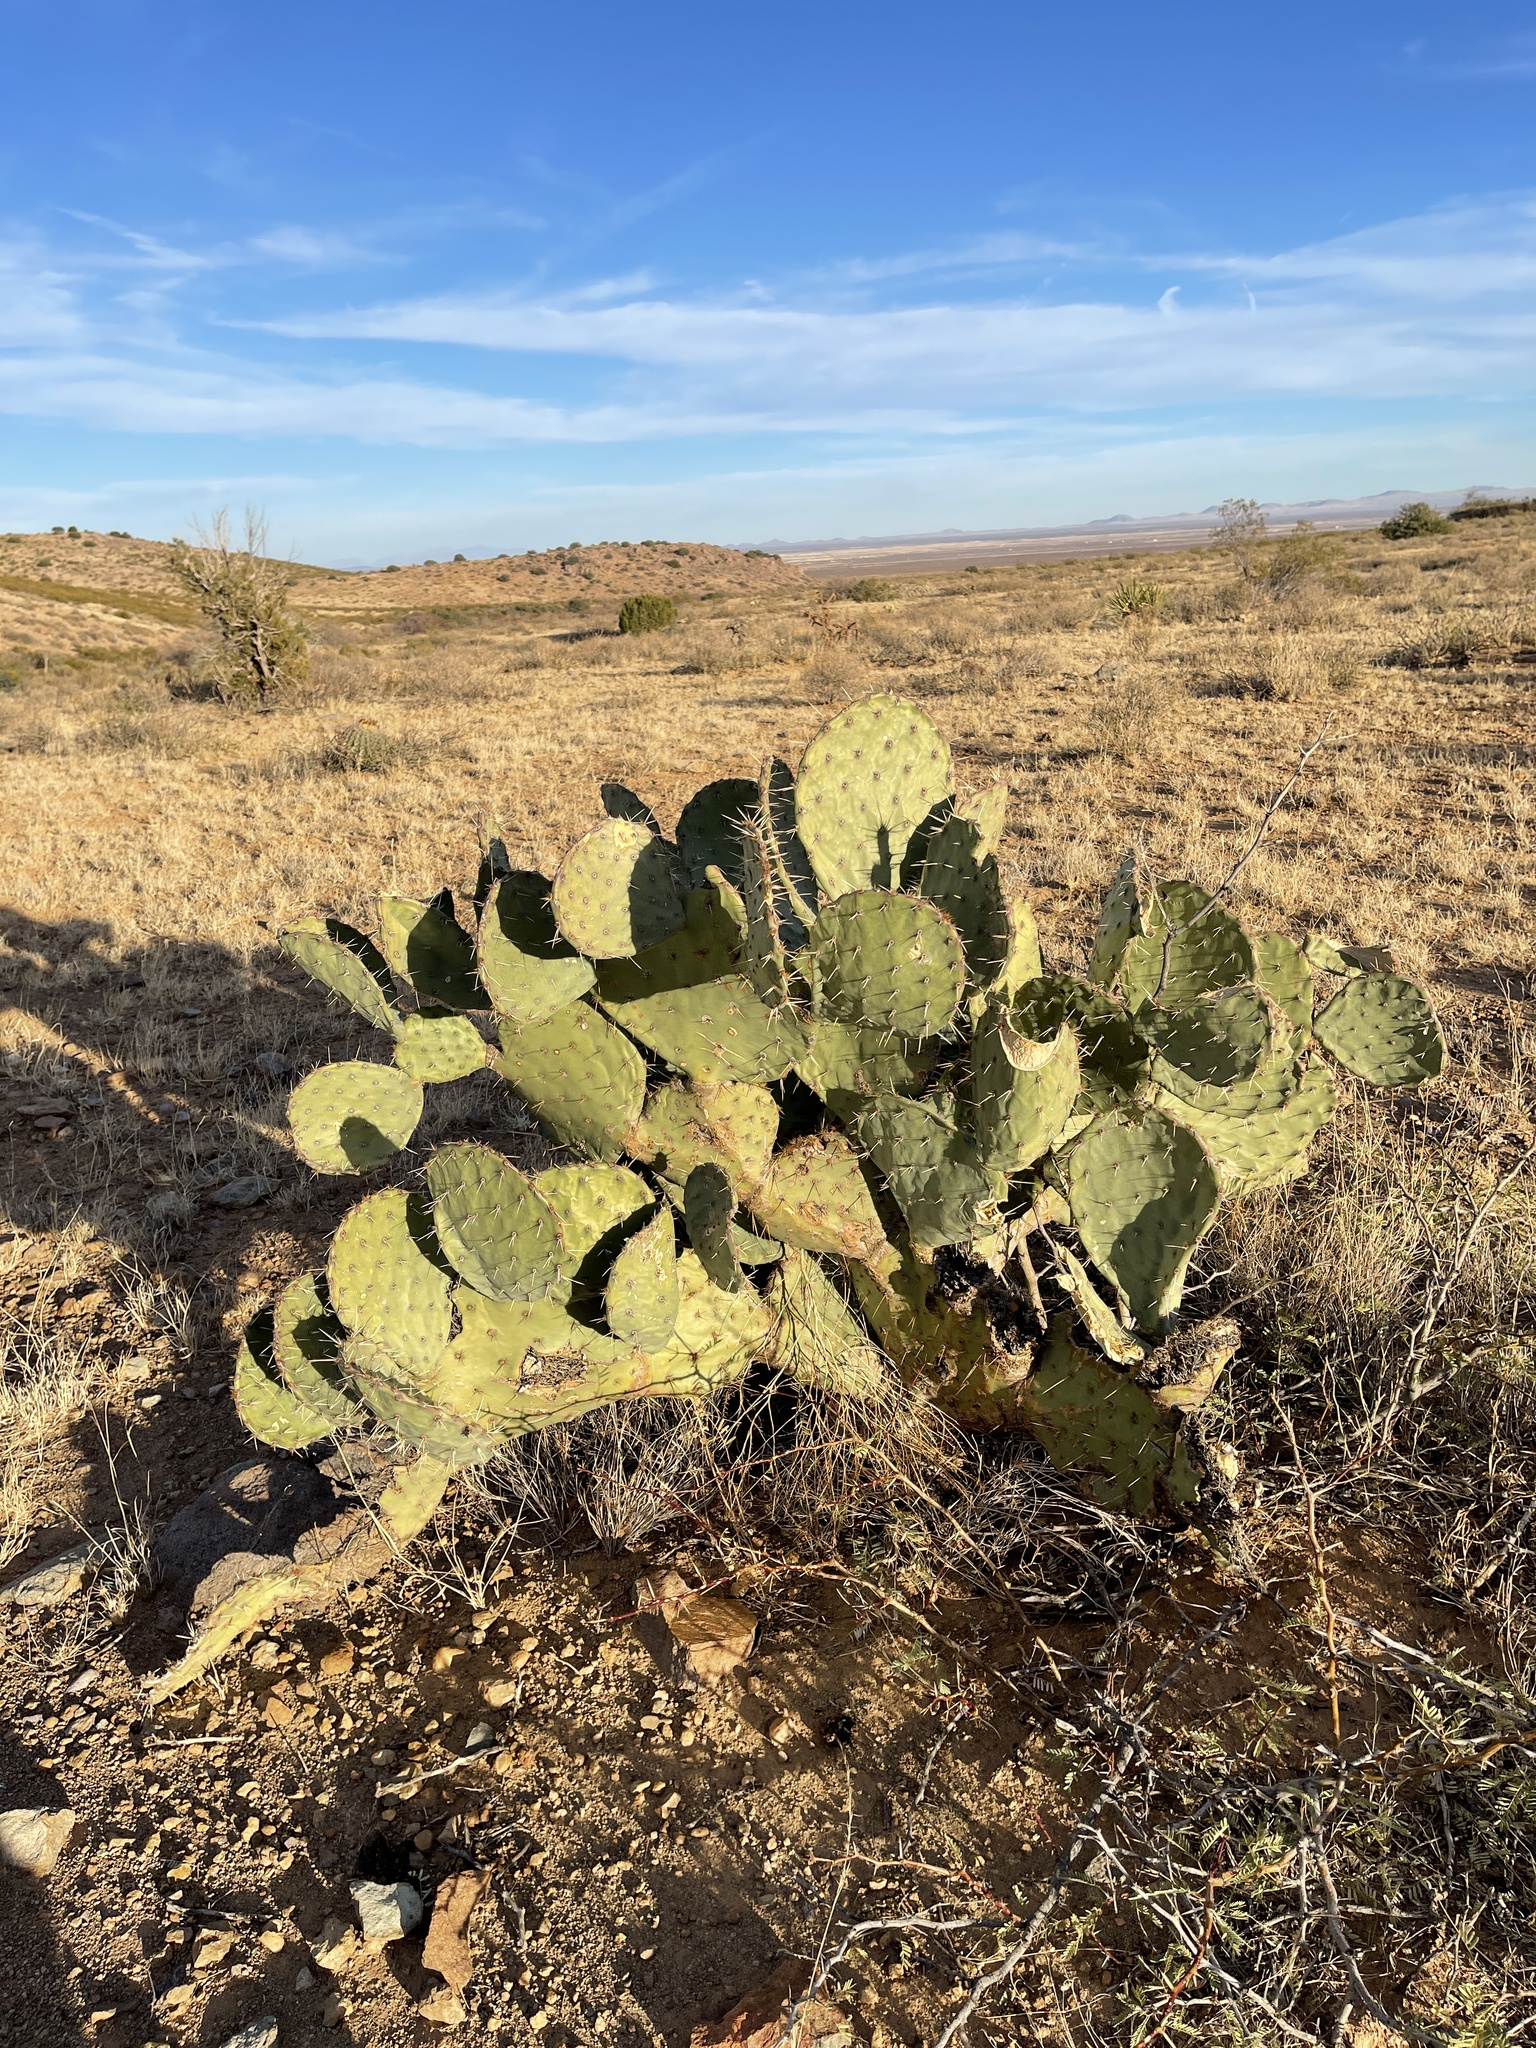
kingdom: Plantae
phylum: Tracheophyta
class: Magnoliopsida
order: Caryophyllales
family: Cactaceae
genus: Opuntia
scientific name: Opuntia engelmannii
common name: Cactus-apple
